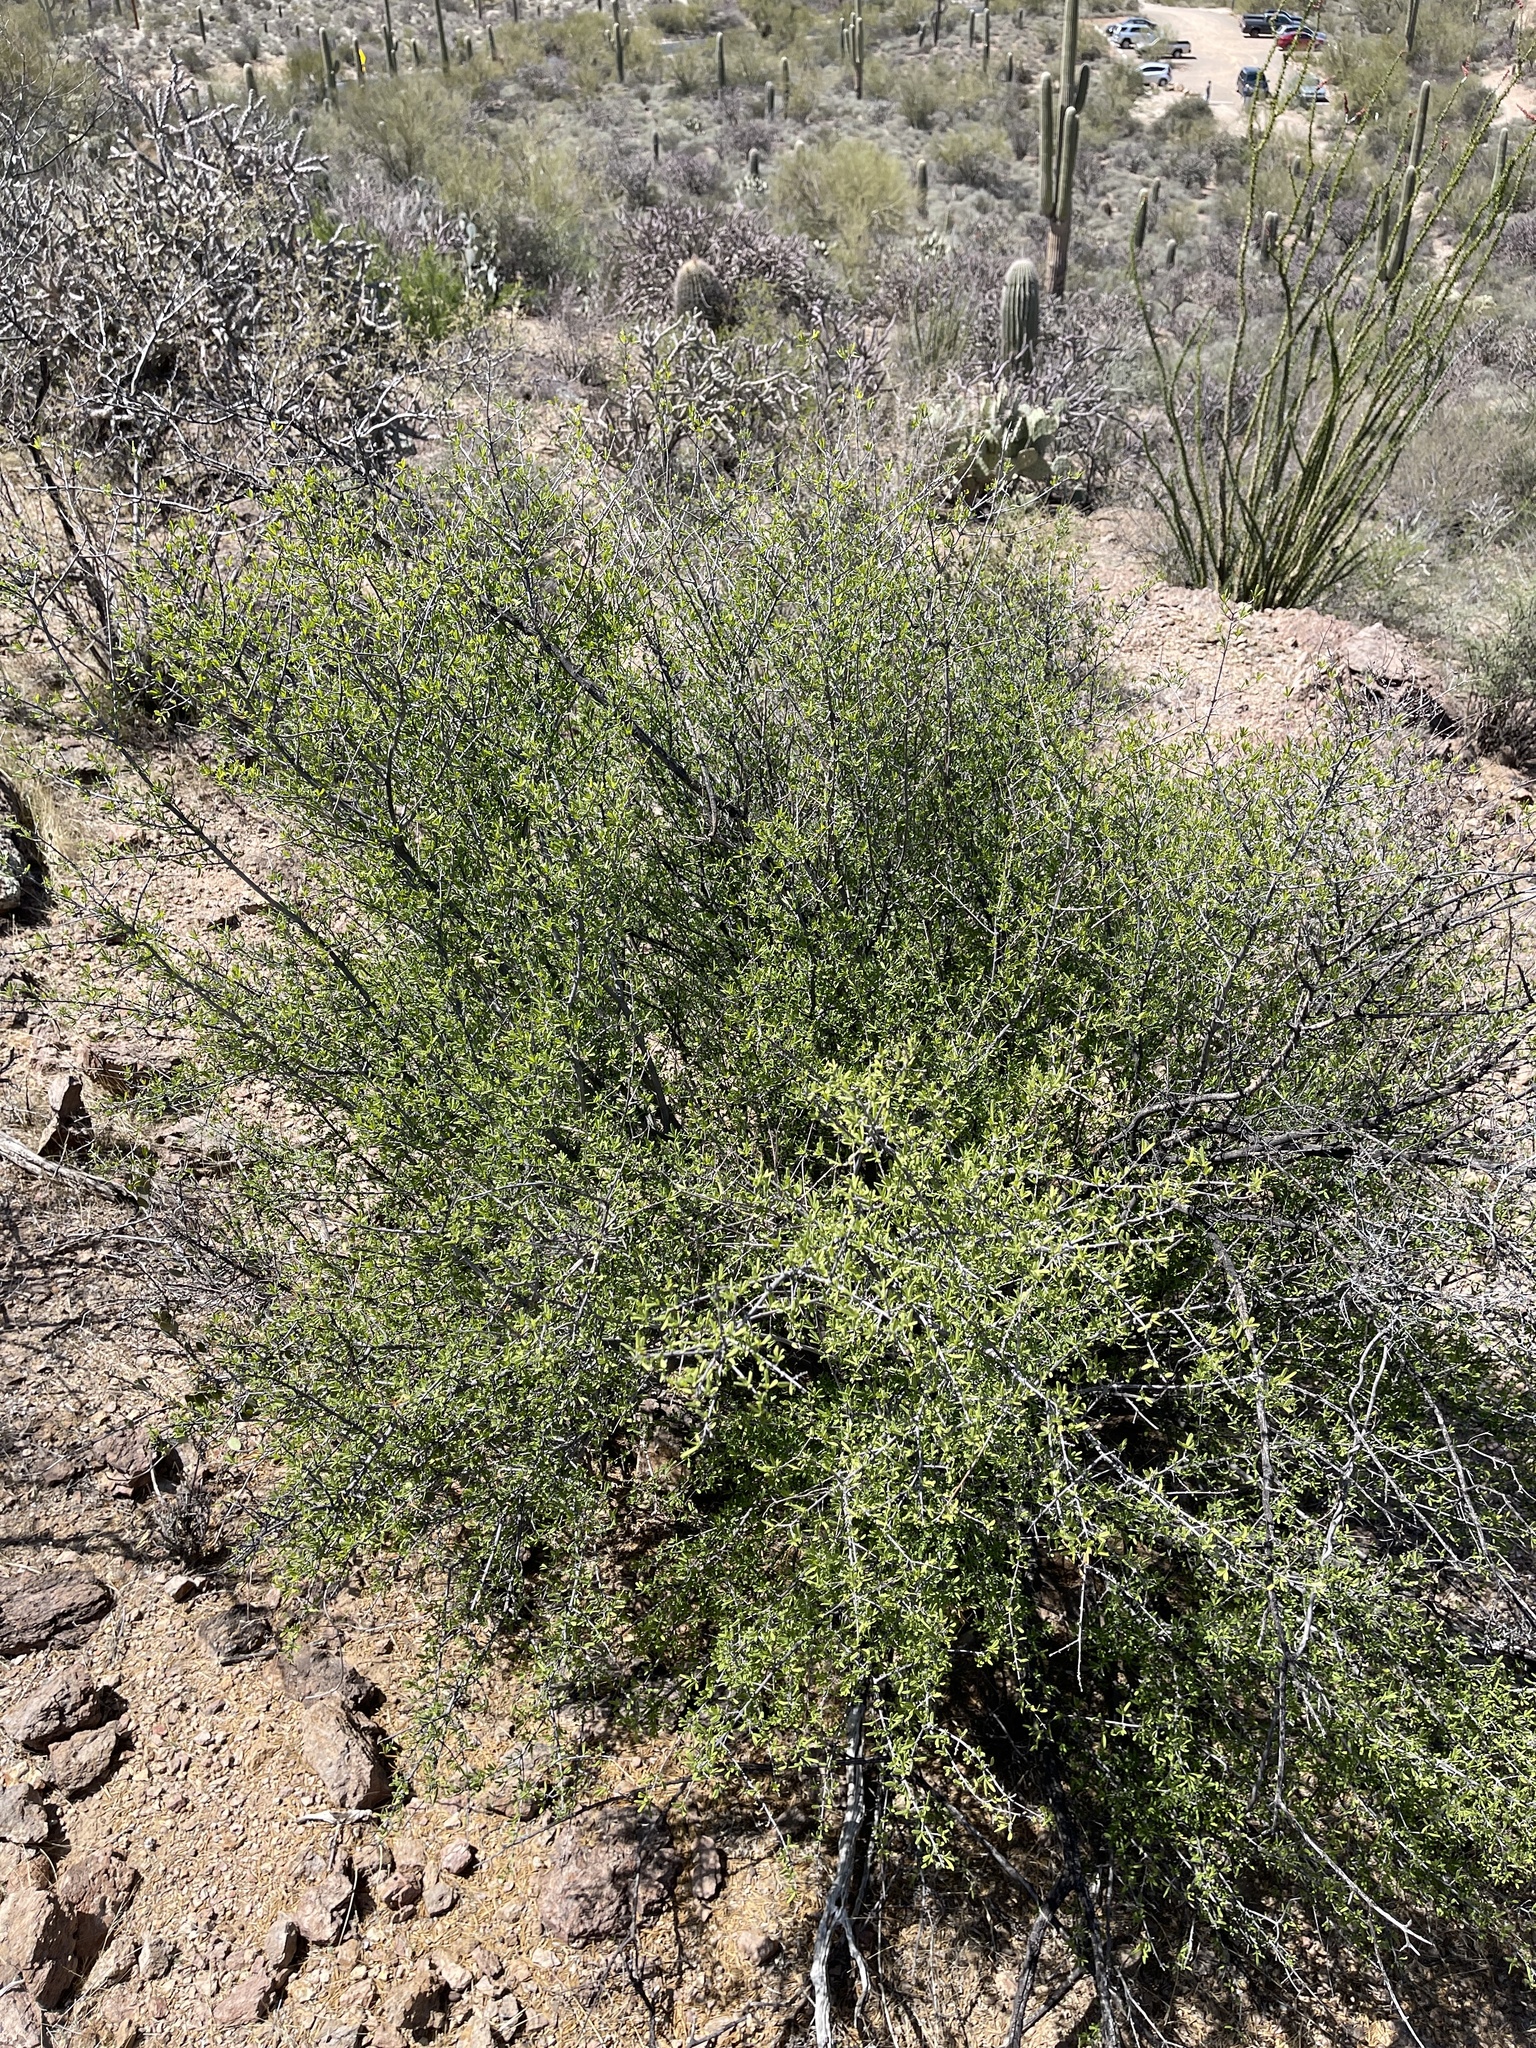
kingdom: Plantae
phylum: Tracheophyta
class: Magnoliopsida
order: Solanales
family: Solanaceae
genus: Lycium
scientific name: Lycium berlandieri
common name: Berlandier wolfberry
